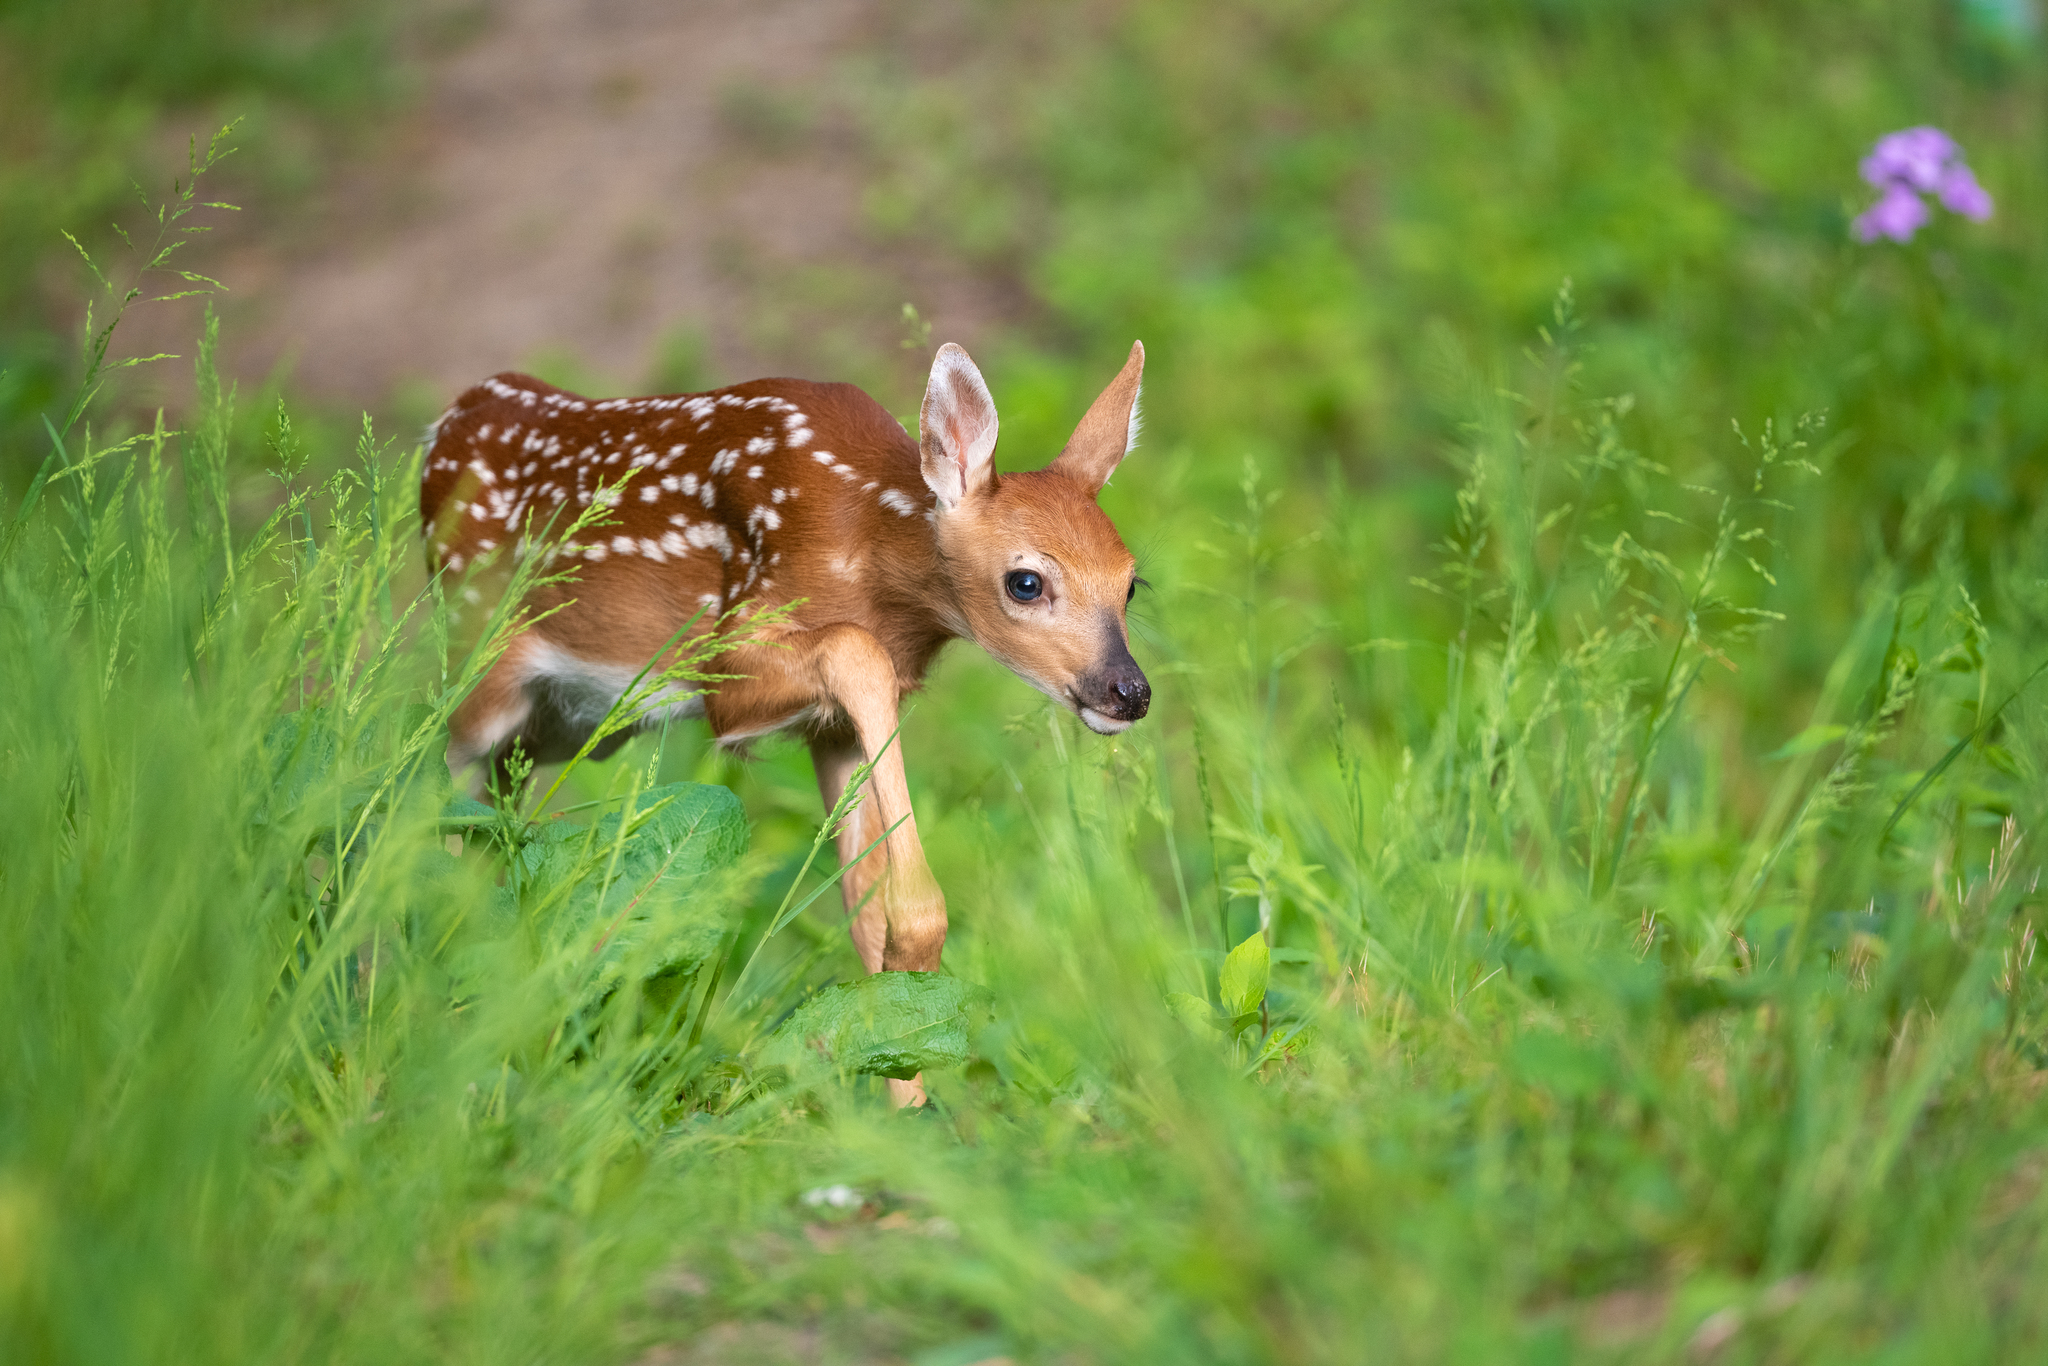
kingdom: Animalia
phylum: Chordata
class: Mammalia
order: Artiodactyla
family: Cervidae
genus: Odocoileus
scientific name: Odocoileus virginianus
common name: White-tailed deer
